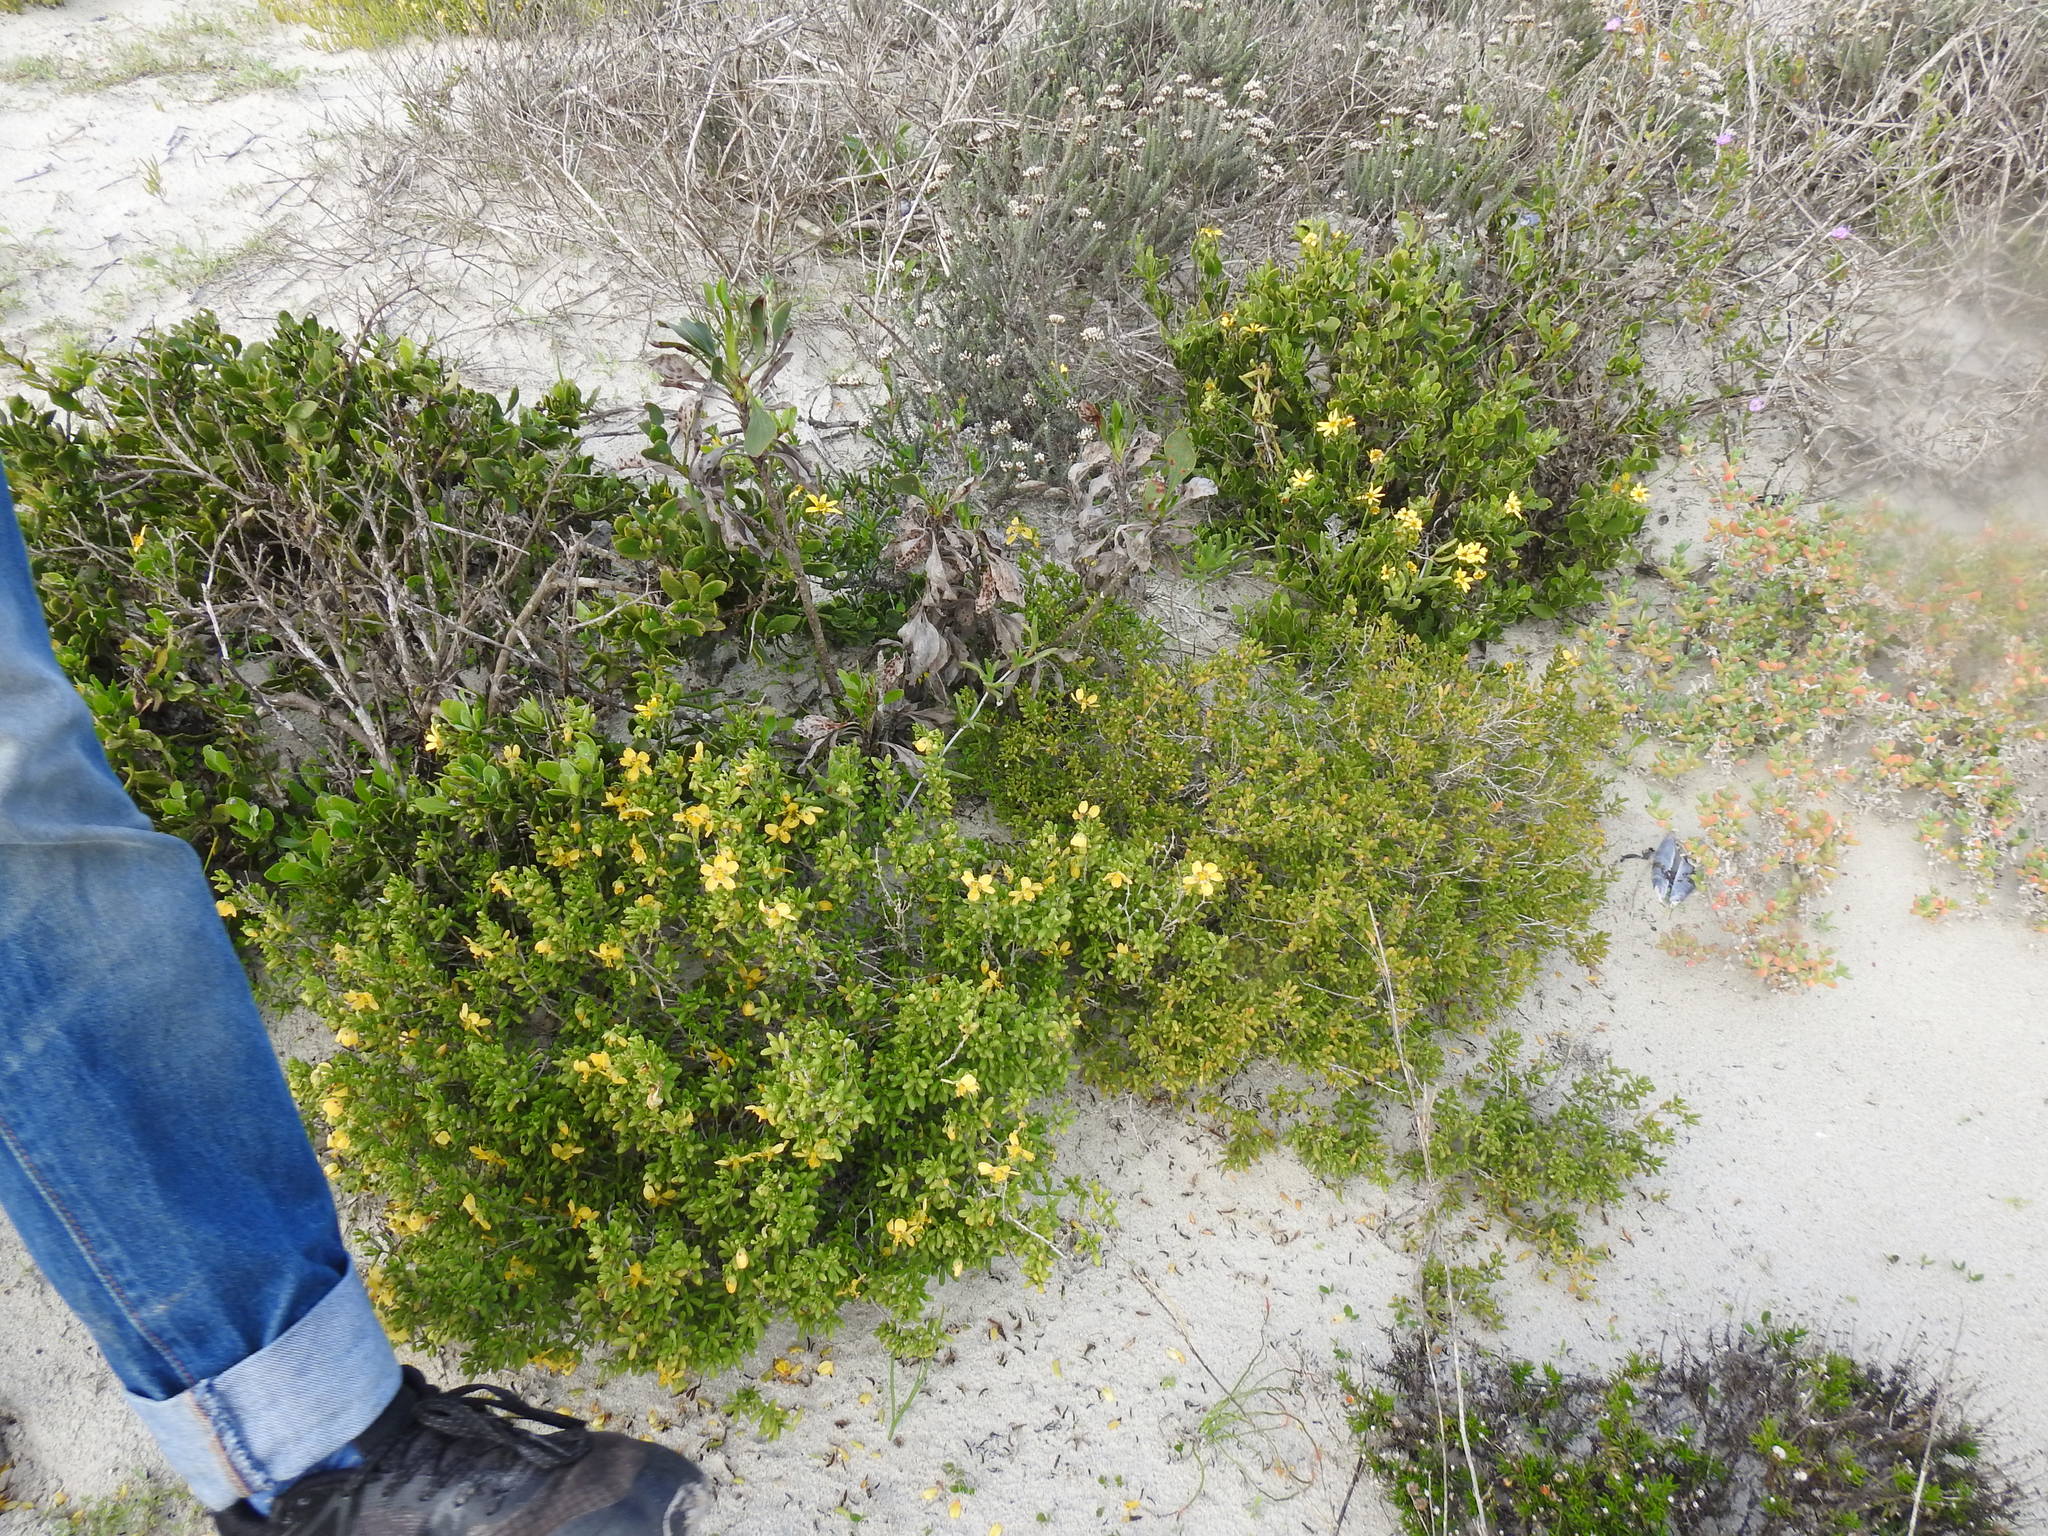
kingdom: Plantae
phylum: Tracheophyta
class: Magnoliopsida
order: Zygophyllales
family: Zygophyllaceae
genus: Roepera
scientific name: Roepera flexuosa
